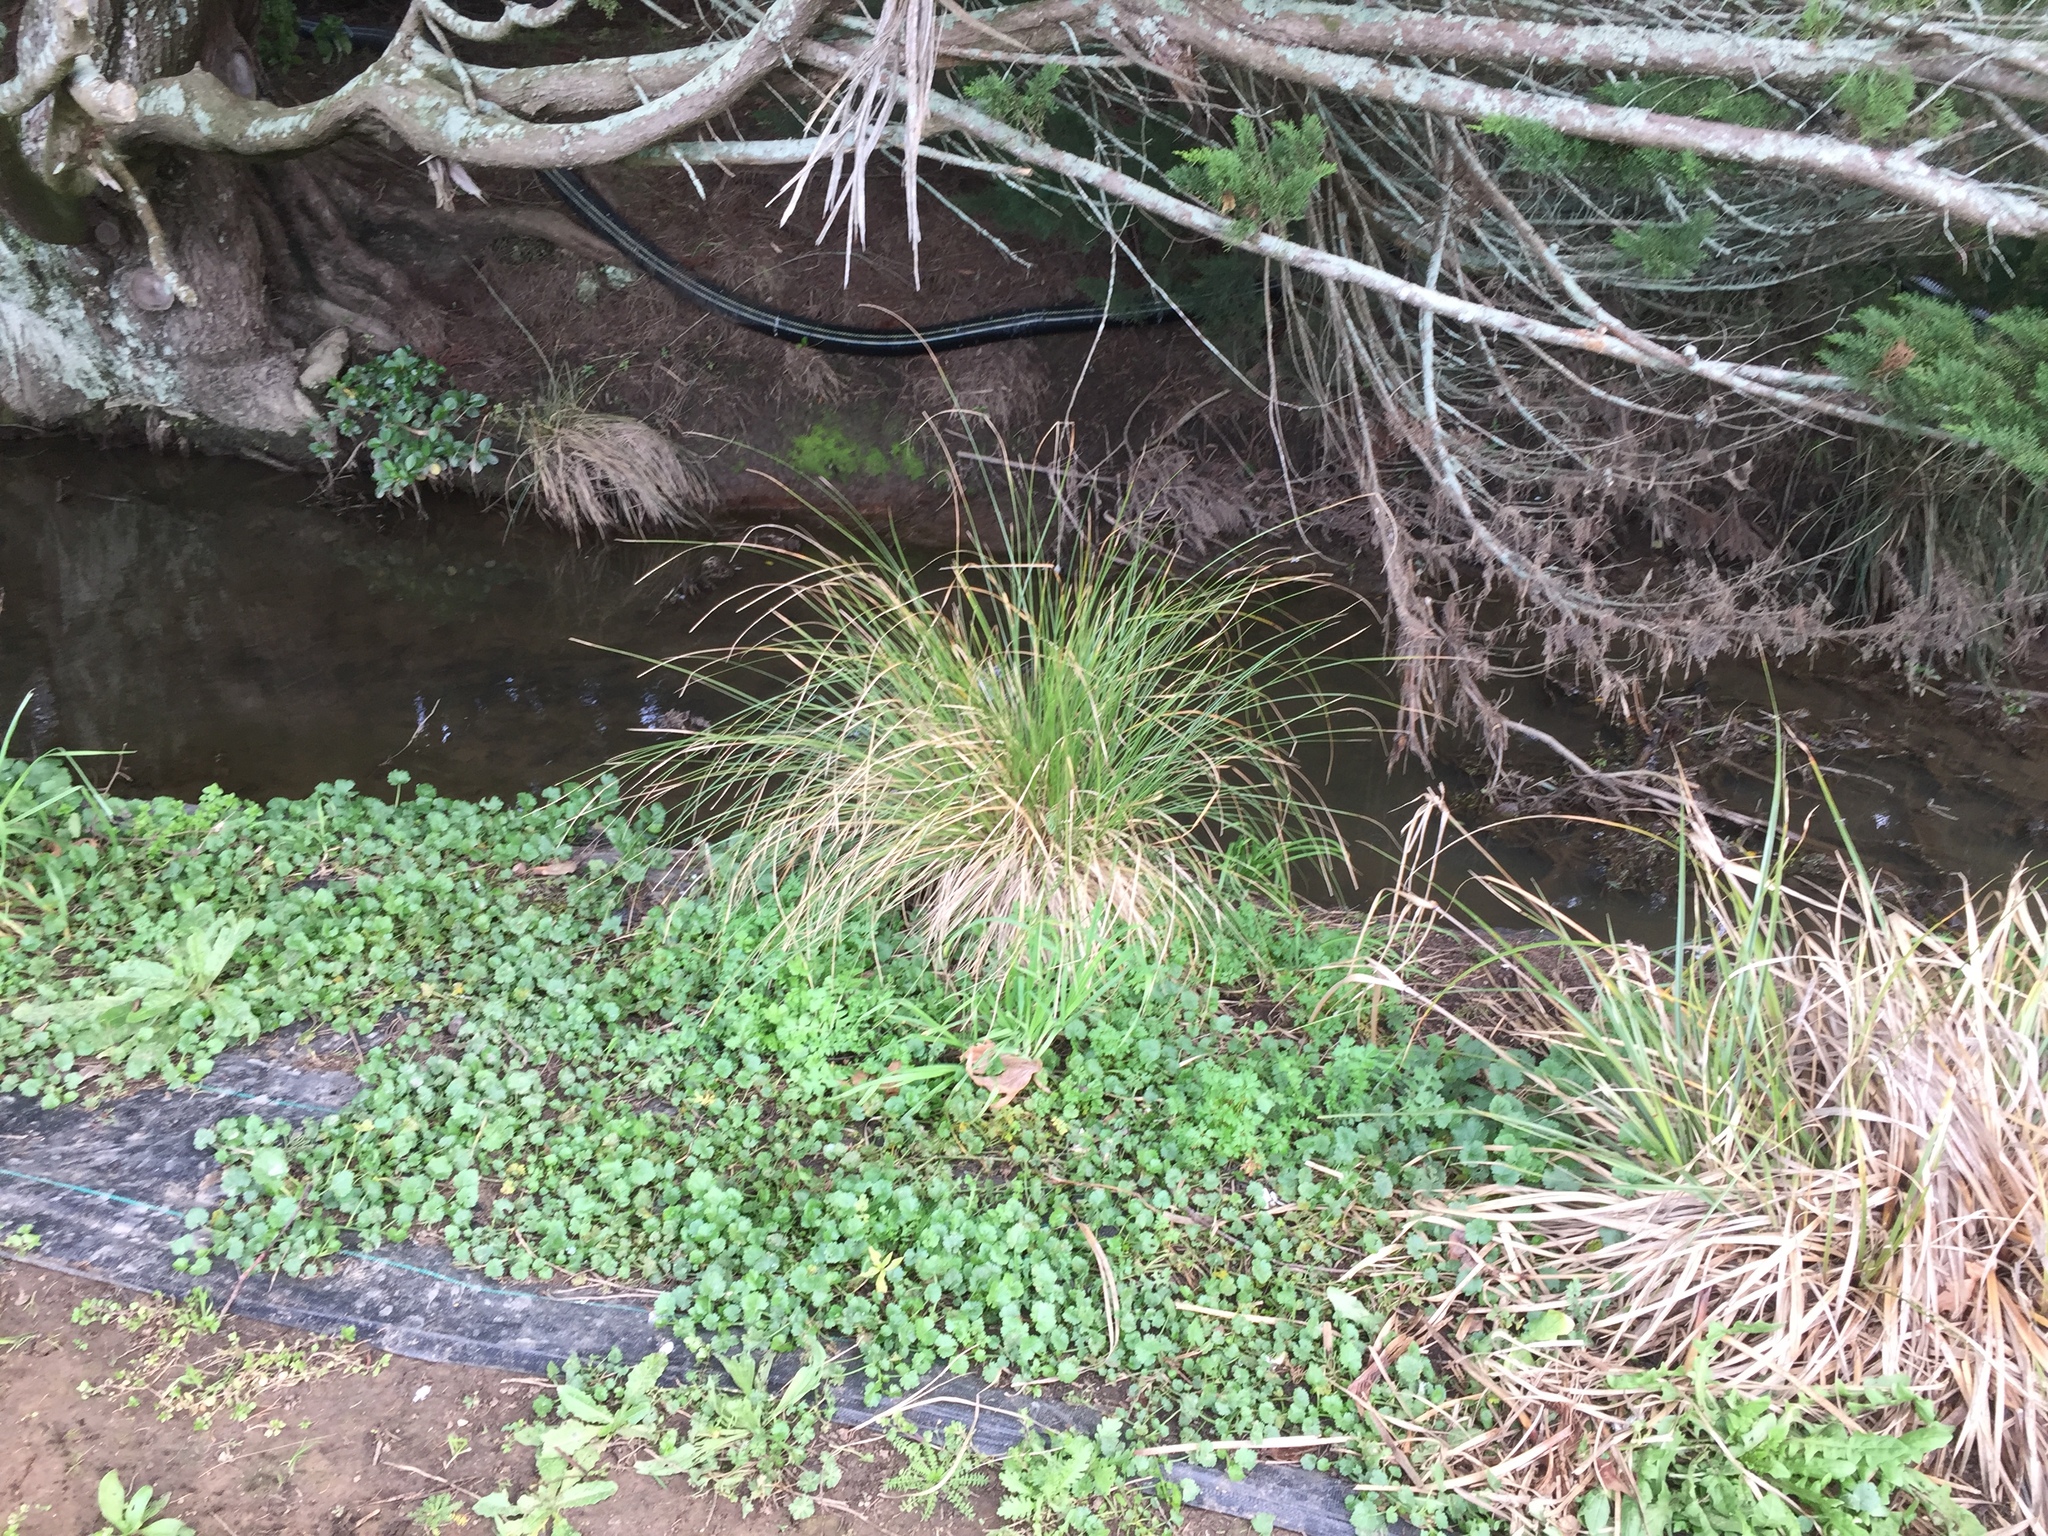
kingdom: Fungi
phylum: Chytridiomycota
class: Chytridiomycetes
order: Chytridiales
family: Synchytriaceae
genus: Synchytrium
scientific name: Synchytrium australe
